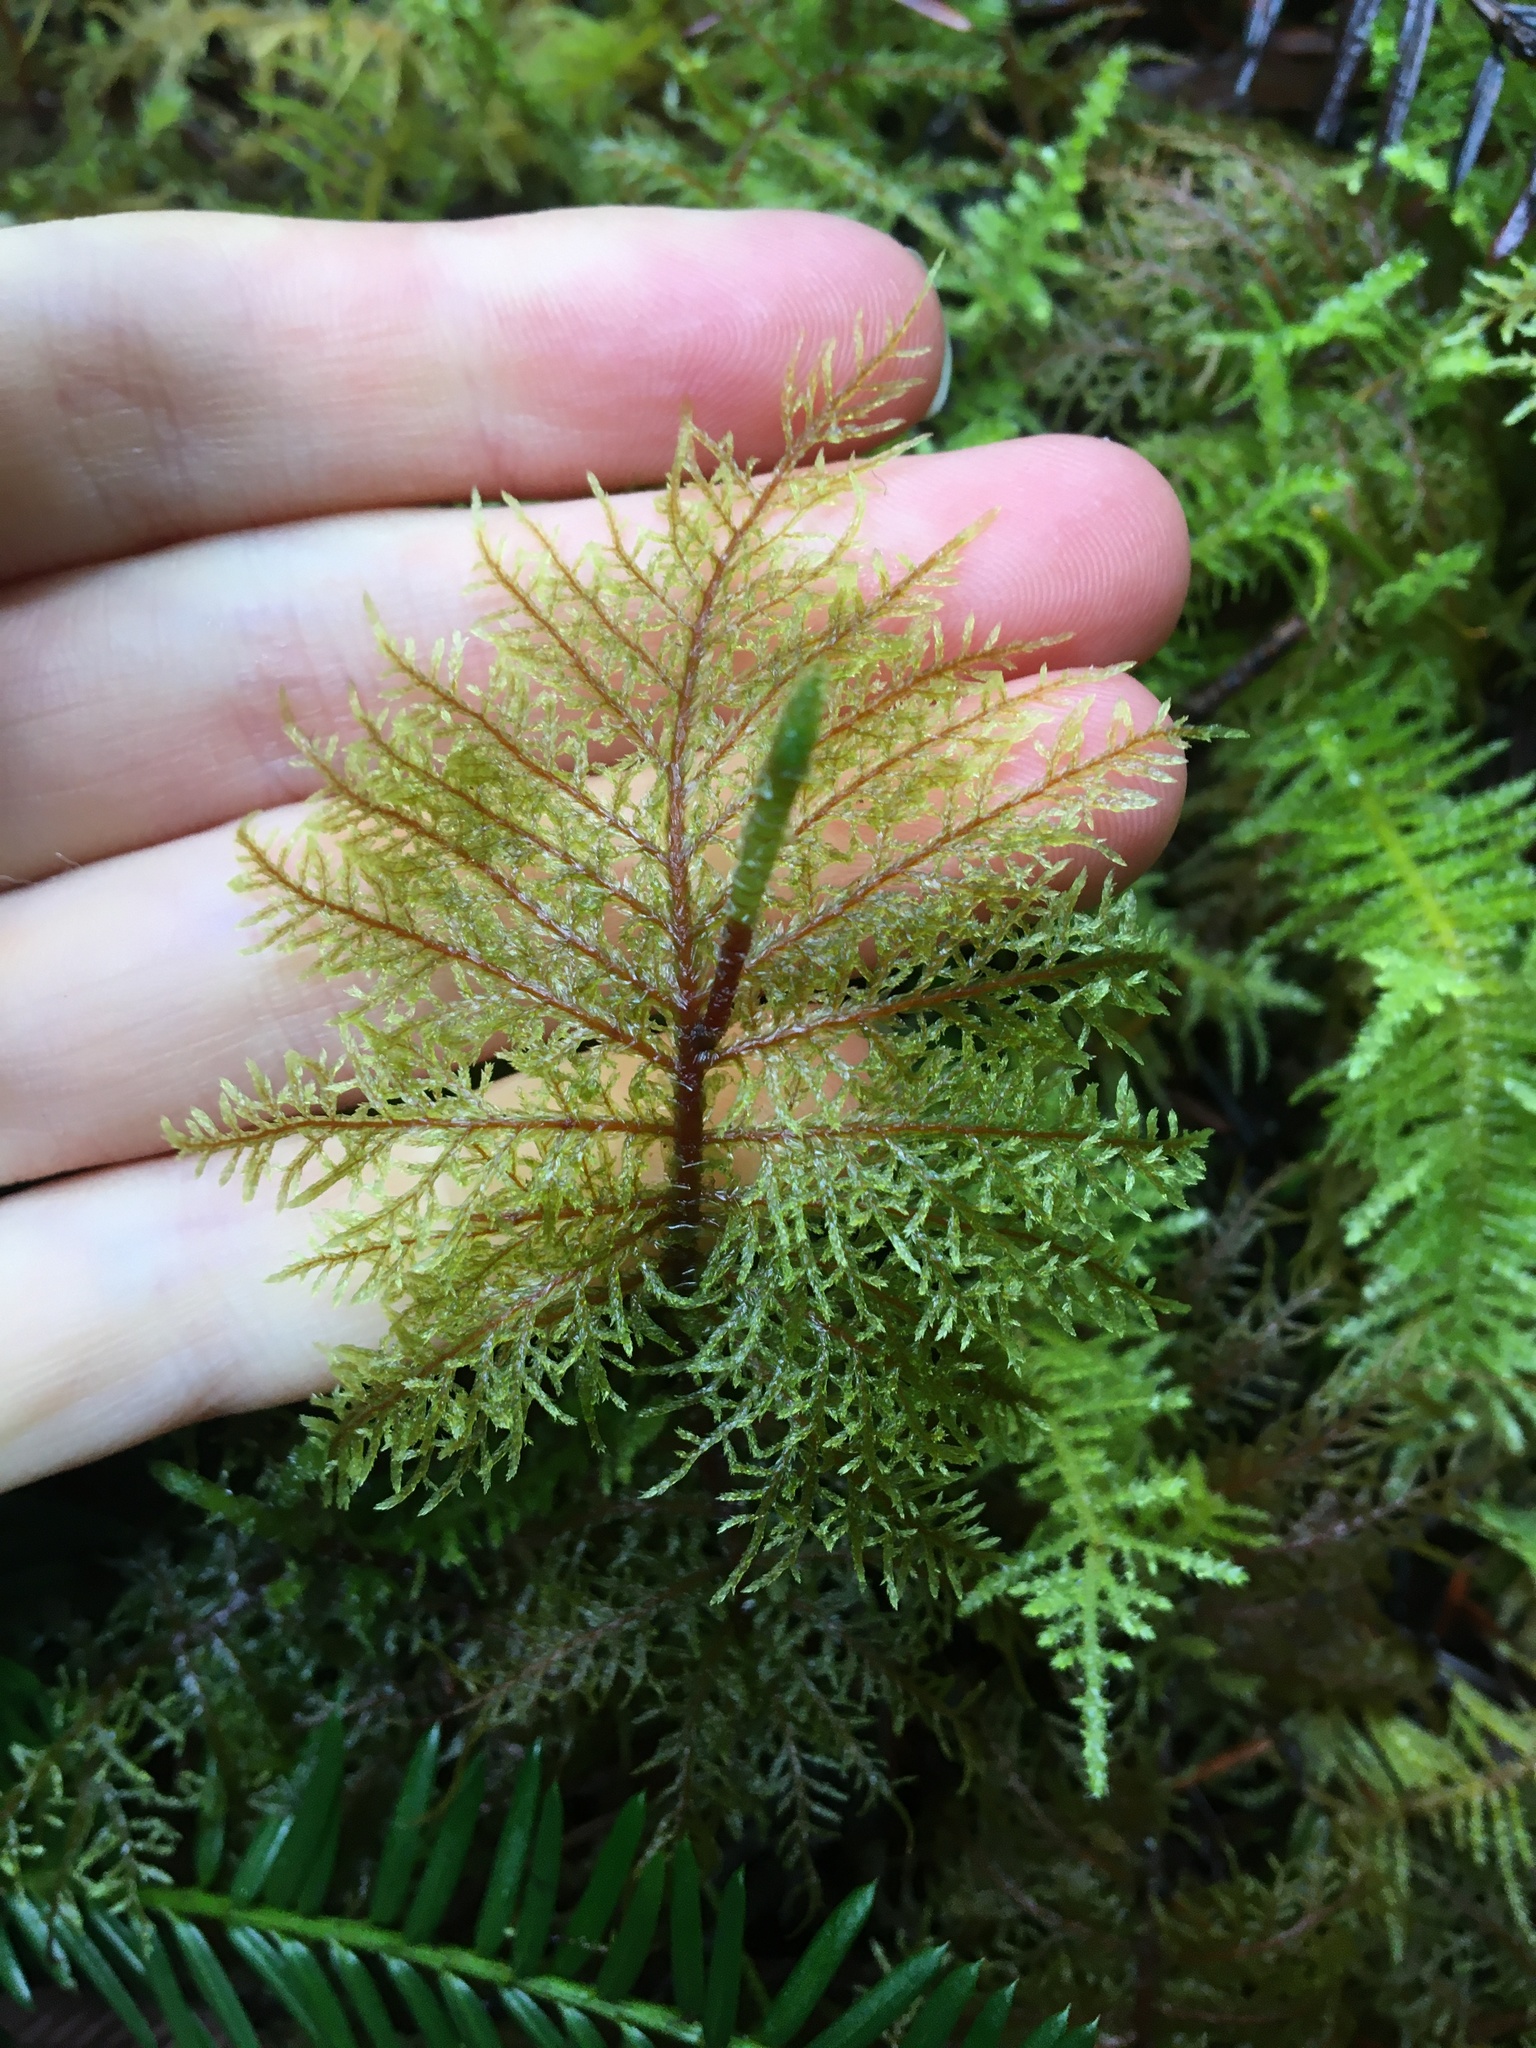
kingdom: Plantae
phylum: Bryophyta
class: Bryopsida
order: Hypnales
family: Hylocomiaceae
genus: Hylocomium
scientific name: Hylocomium splendens
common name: Stairstep moss
